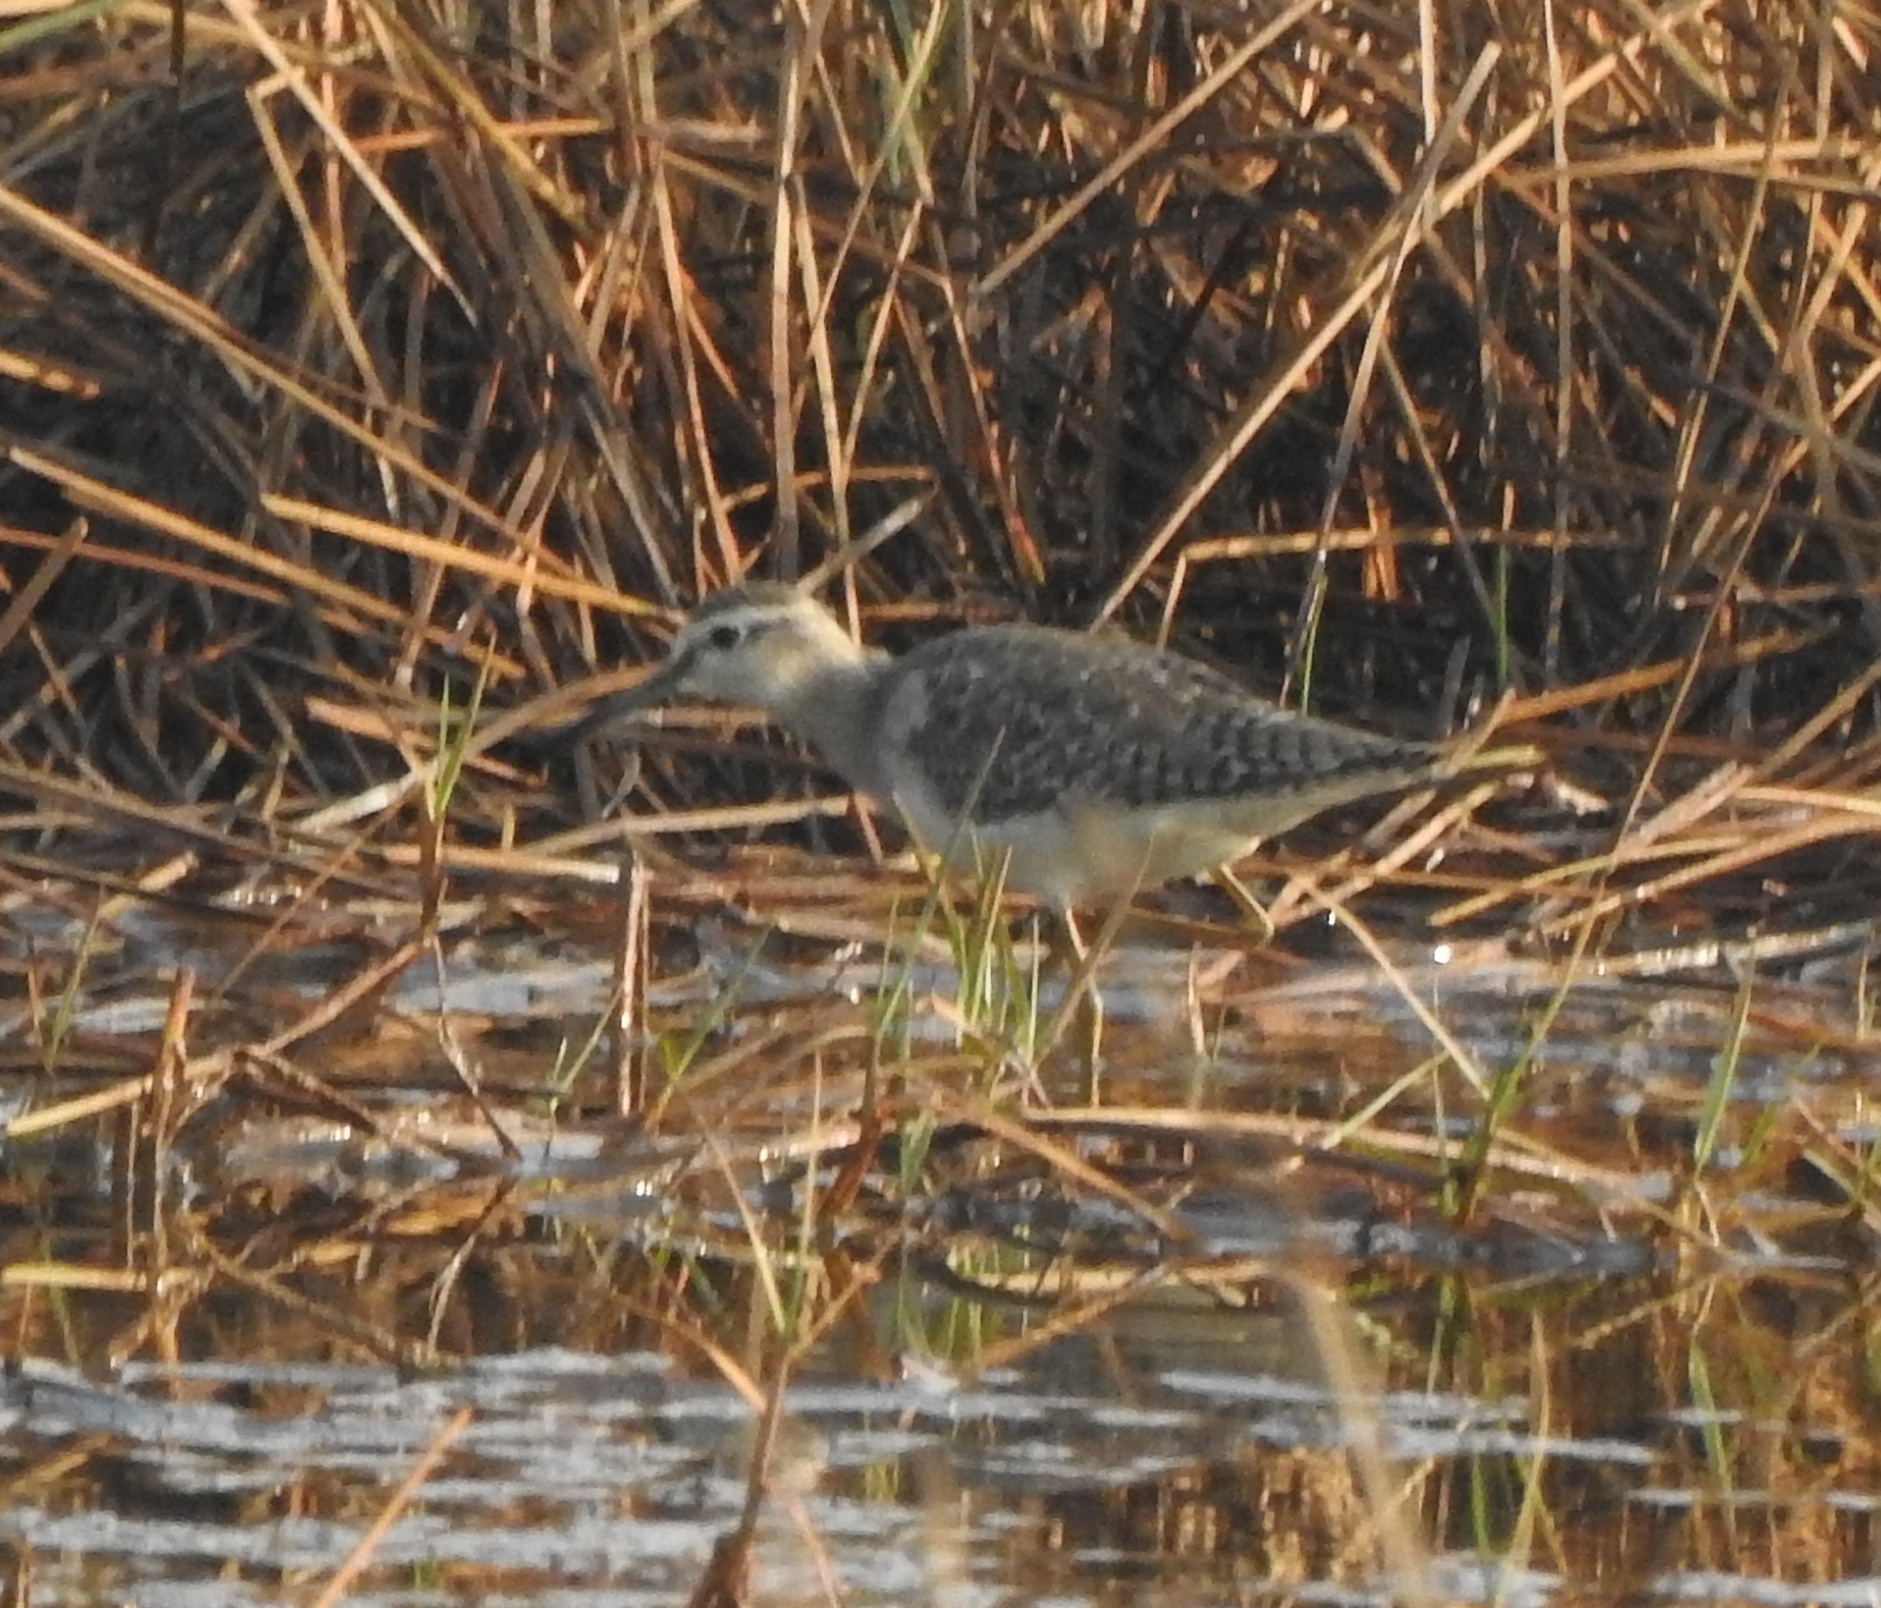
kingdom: Animalia
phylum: Chordata
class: Aves
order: Charadriiformes
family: Scolopacidae
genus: Tringa
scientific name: Tringa glareola
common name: Wood sandpiper
